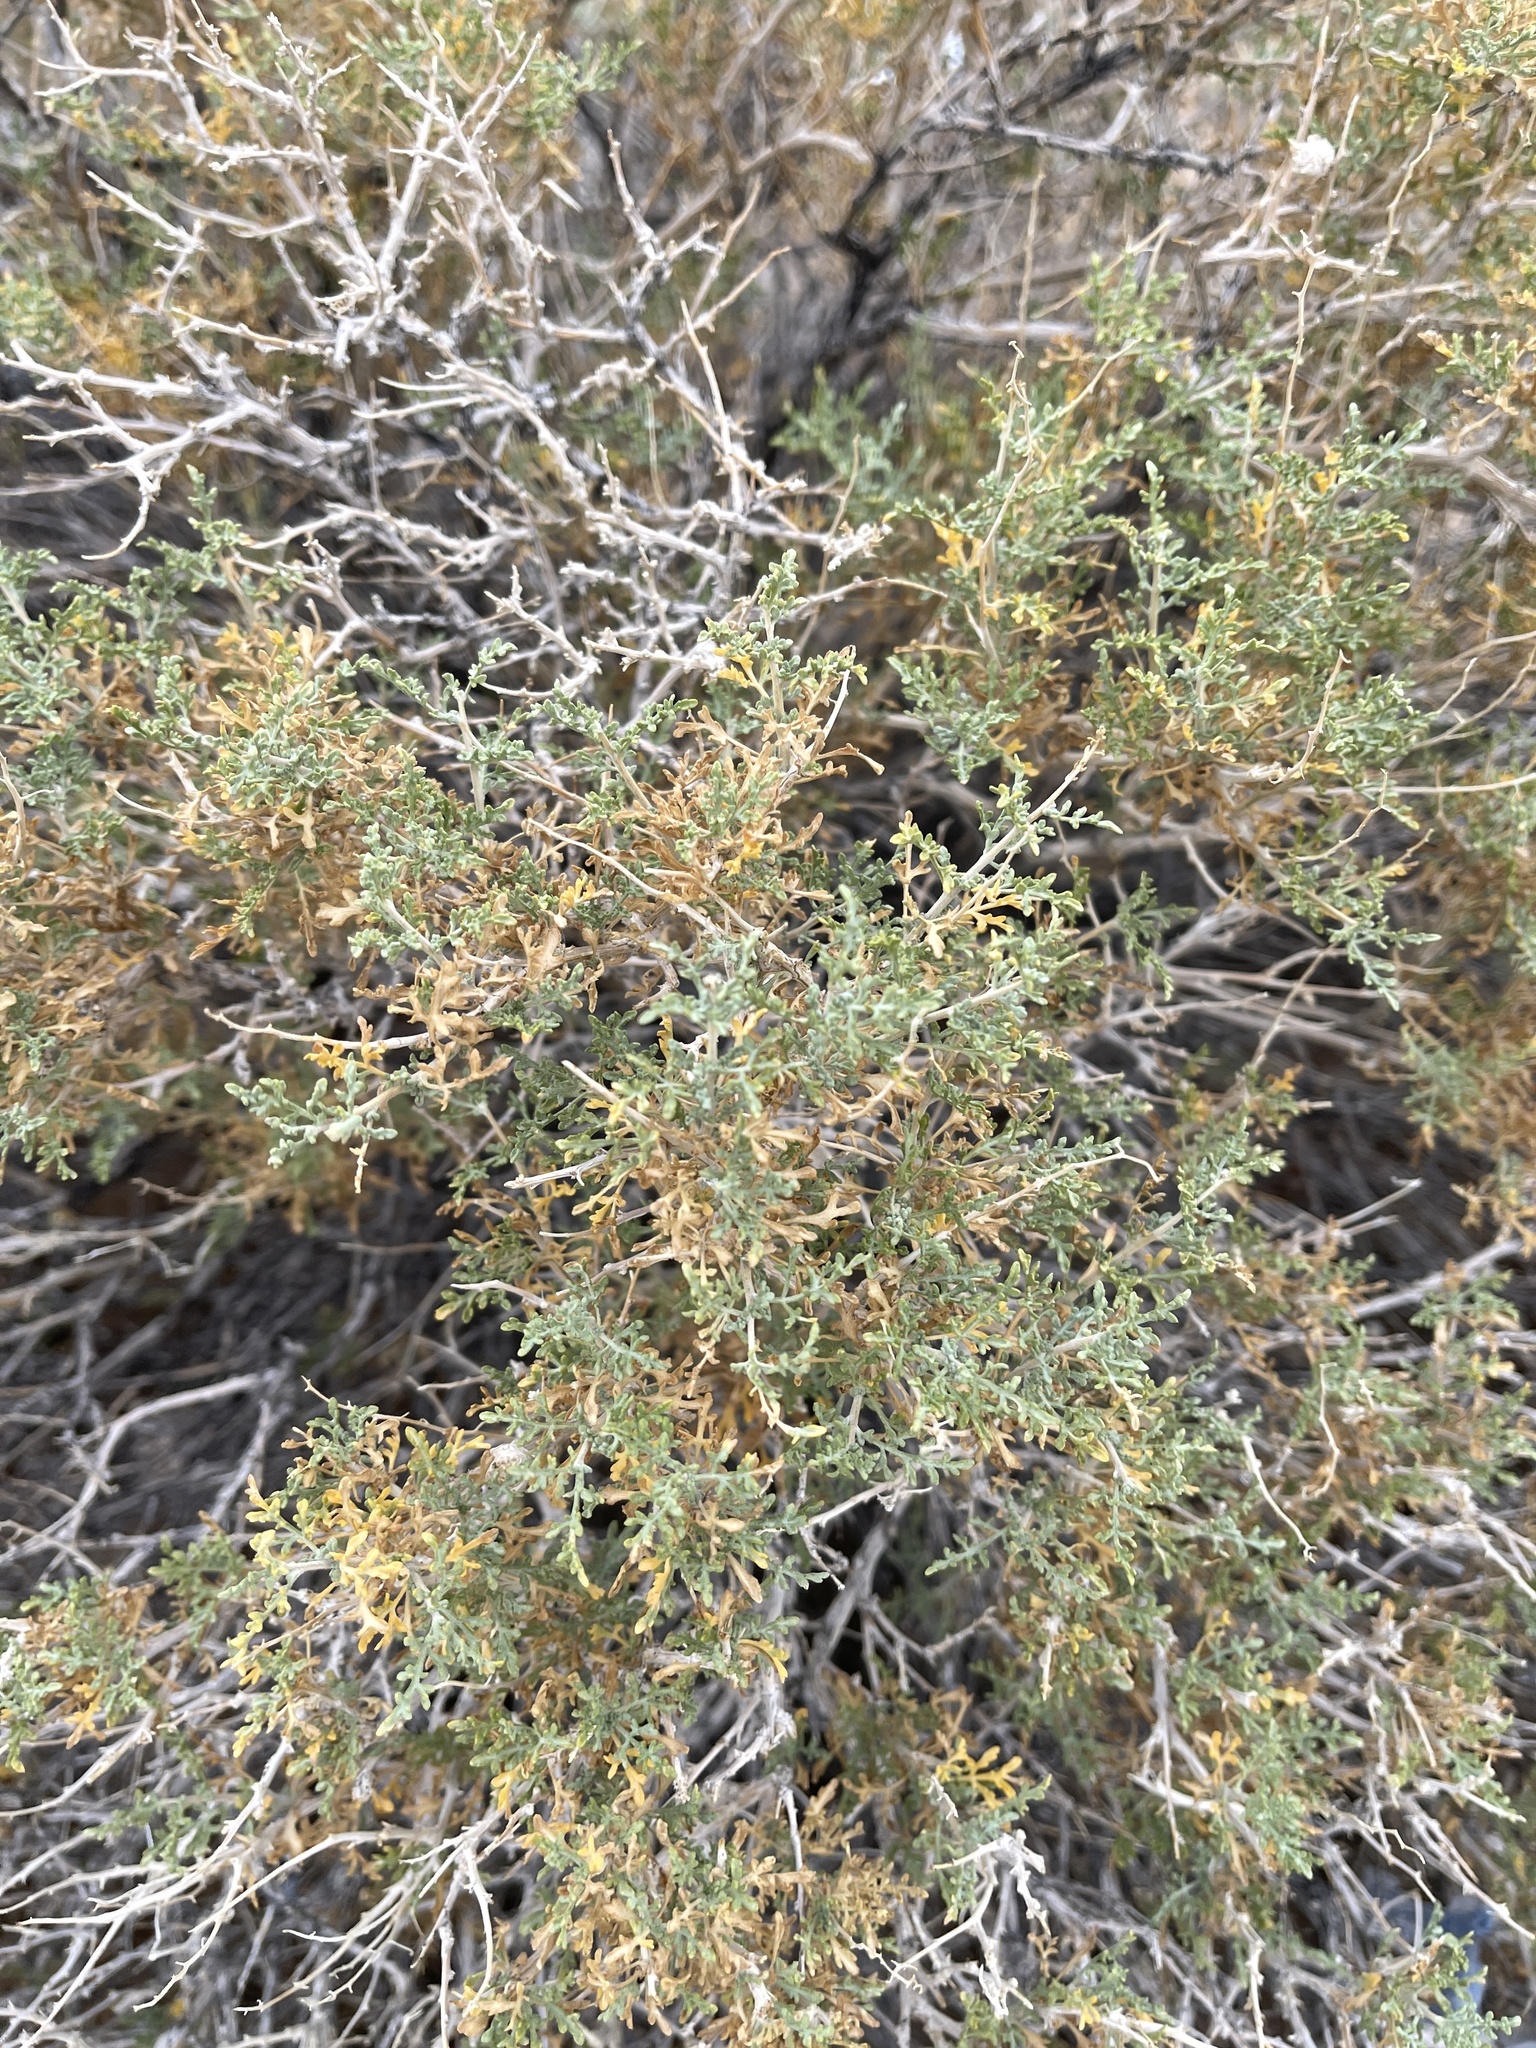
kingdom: Plantae
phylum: Tracheophyta
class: Magnoliopsida
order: Asterales
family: Asteraceae
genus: Ambrosia
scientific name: Ambrosia dumosa
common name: Bur-sage
